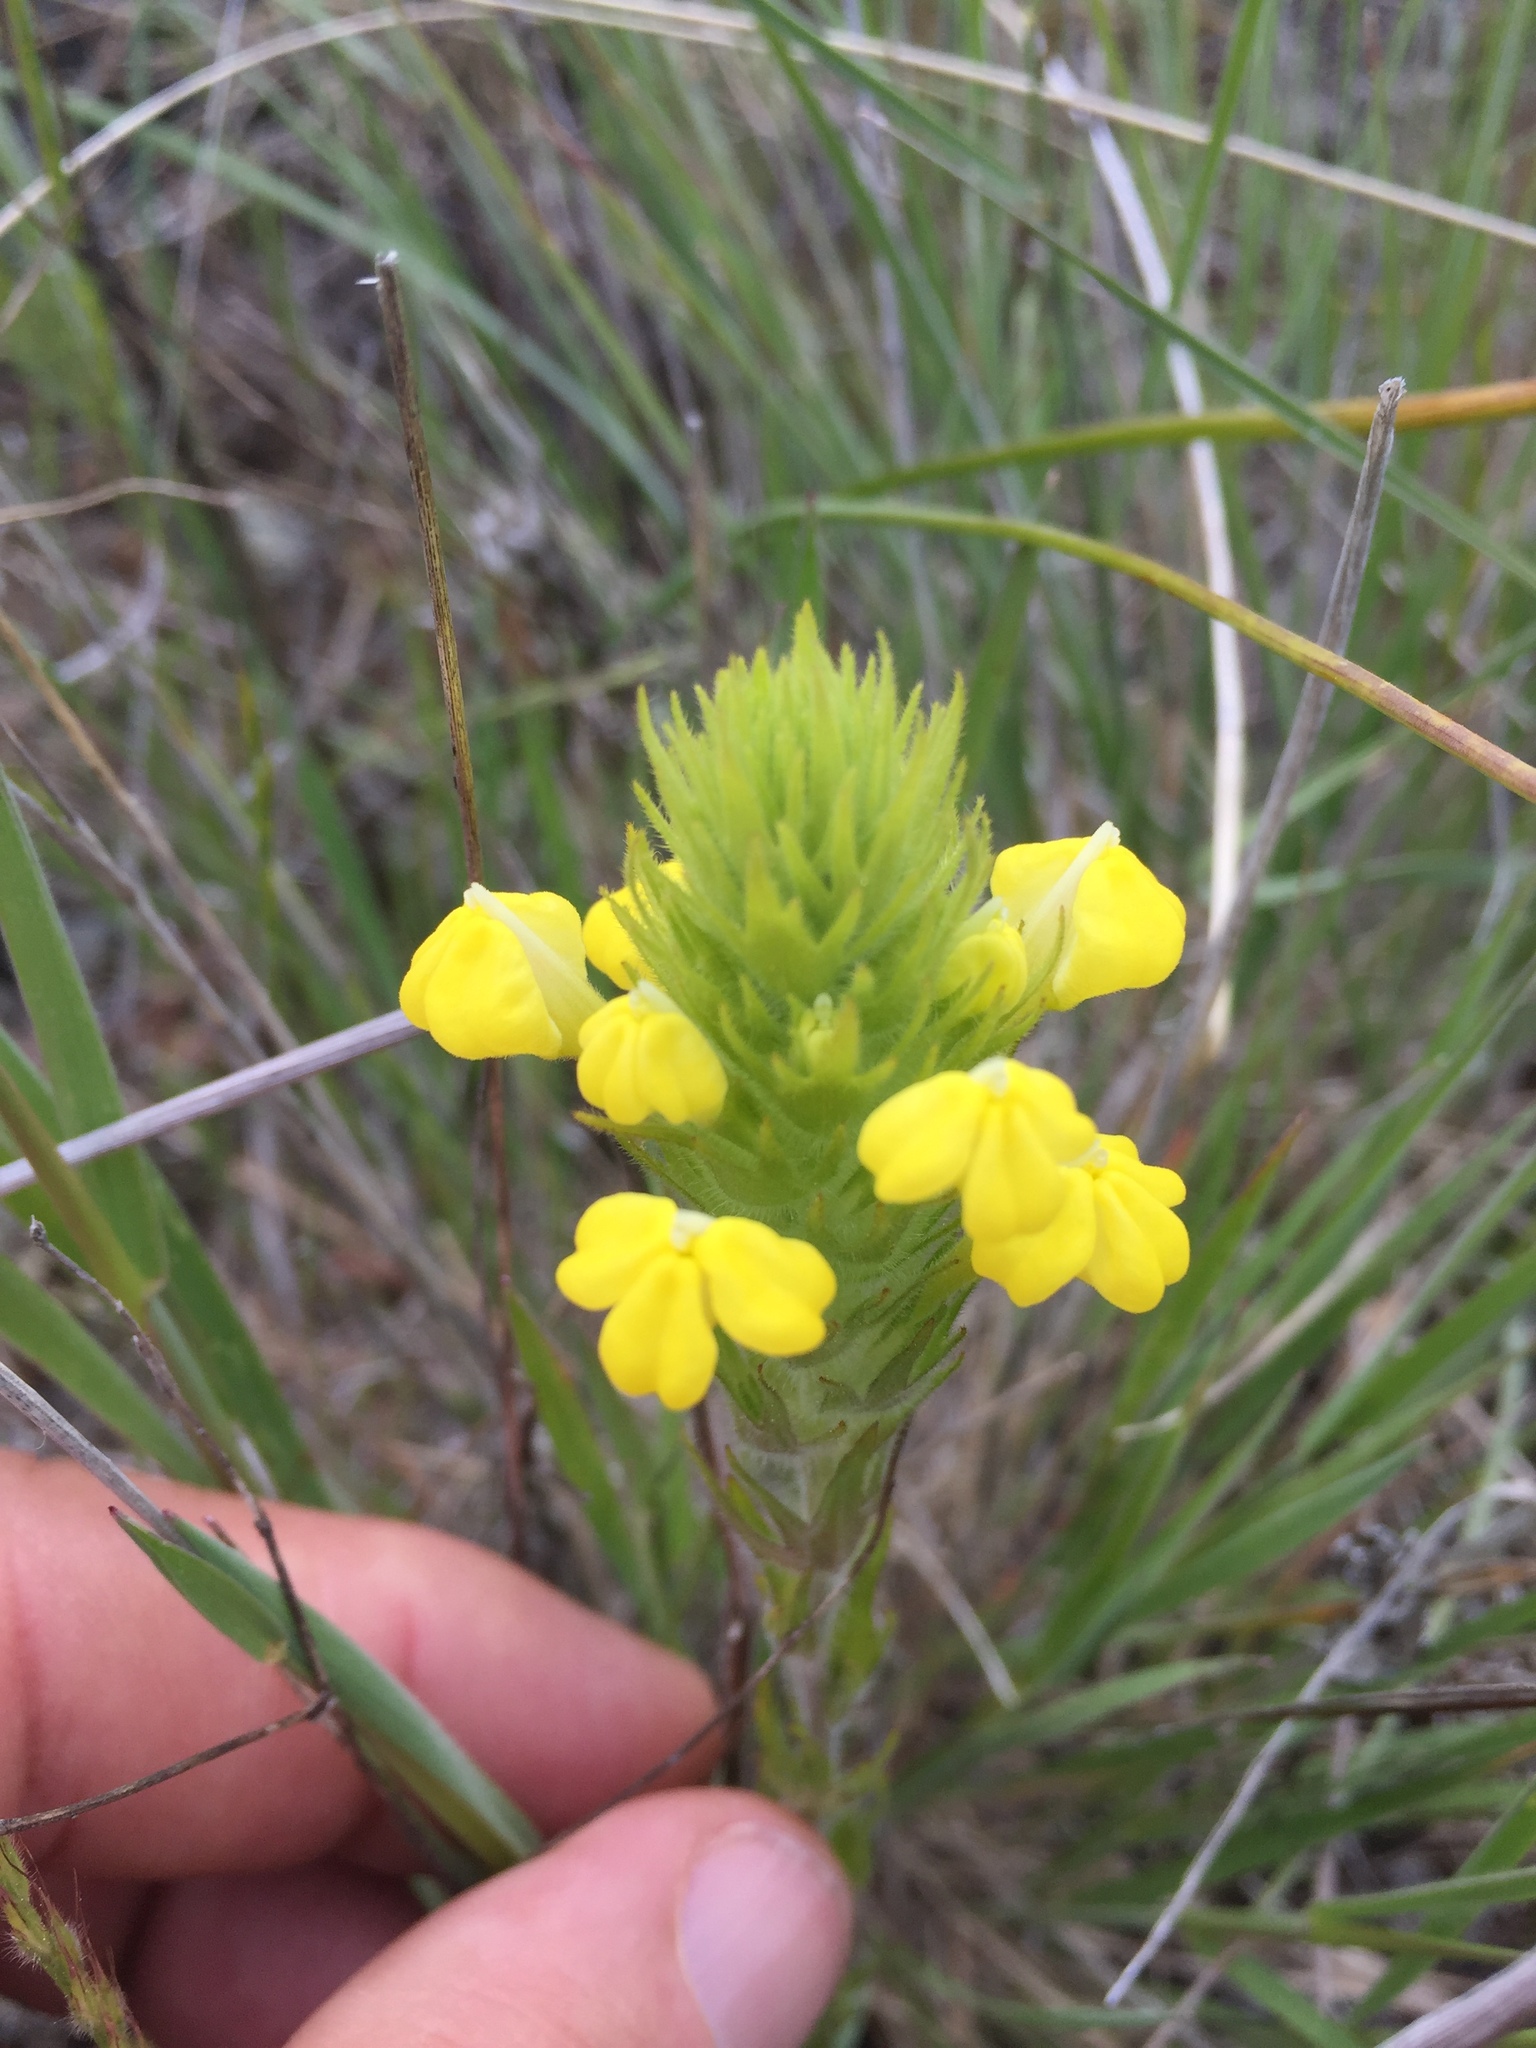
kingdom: Plantae
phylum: Tracheophyta
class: Magnoliopsida
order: Lamiales
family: Orobanchaceae
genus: Castilleja
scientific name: Castilleja rubicundula
